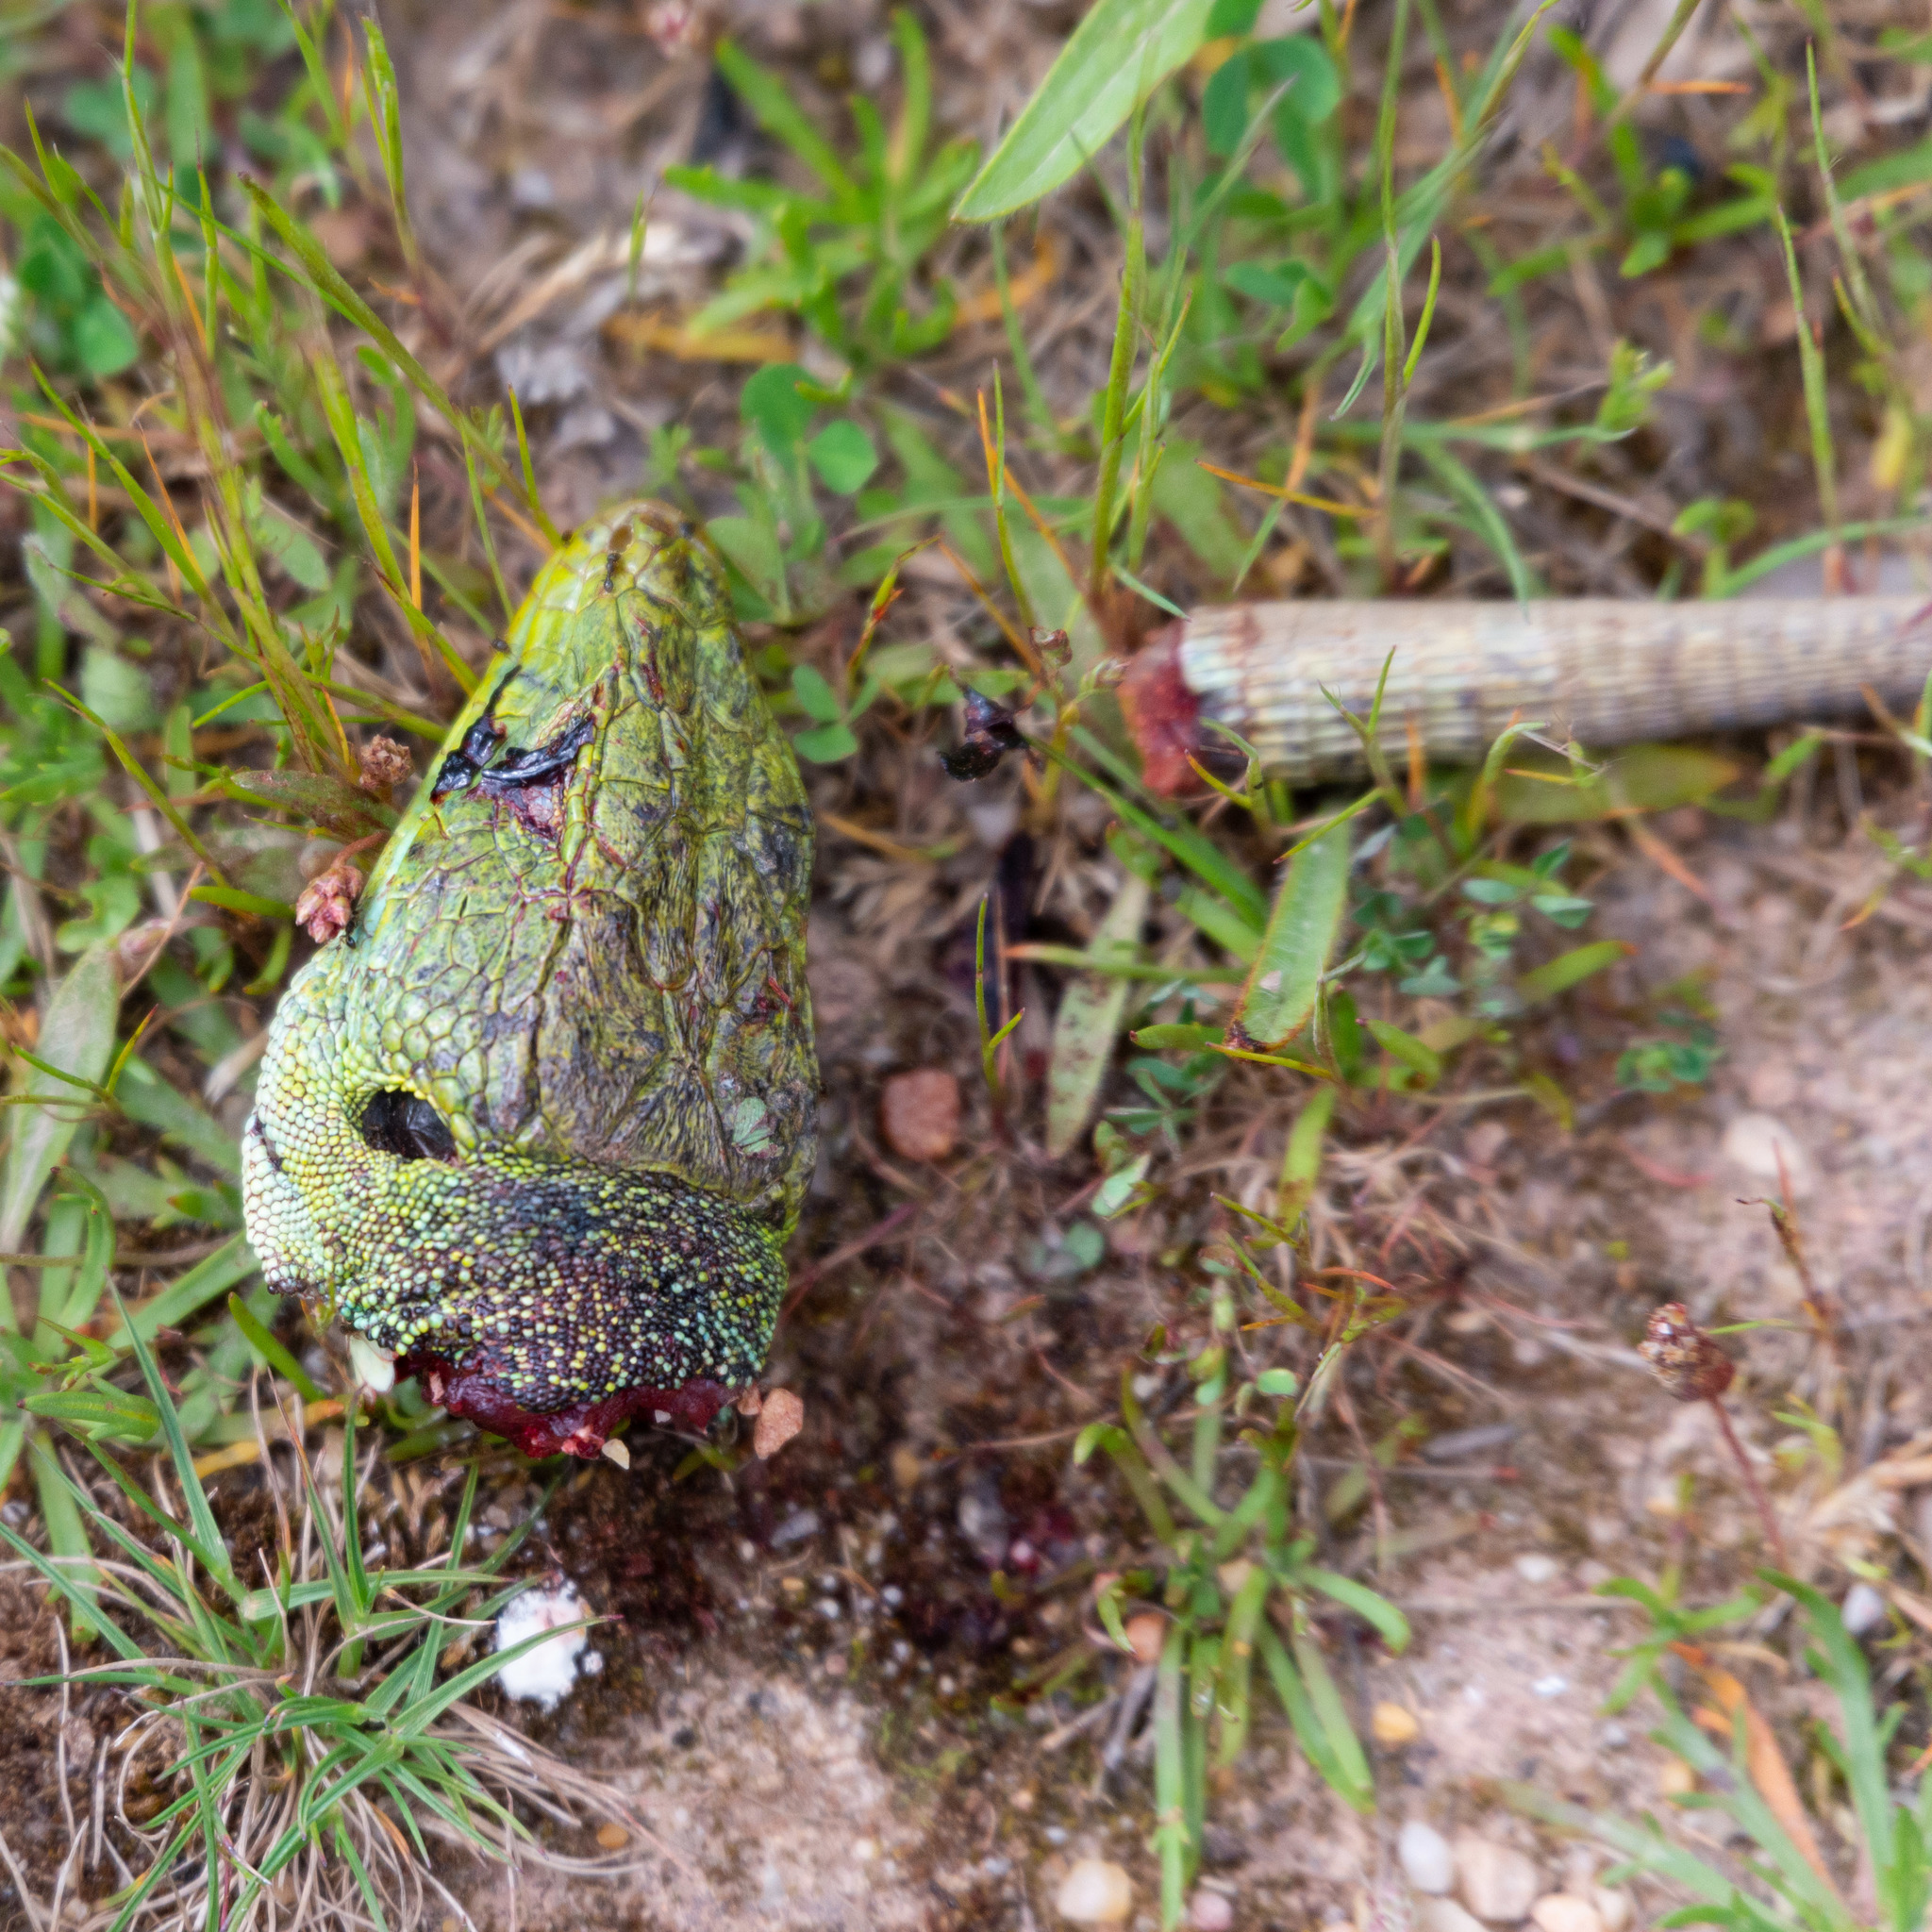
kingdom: Animalia
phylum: Chordata
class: Squamata
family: Lacertidae
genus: Timon
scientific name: Timon lepidus
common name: Ocellated lizard
